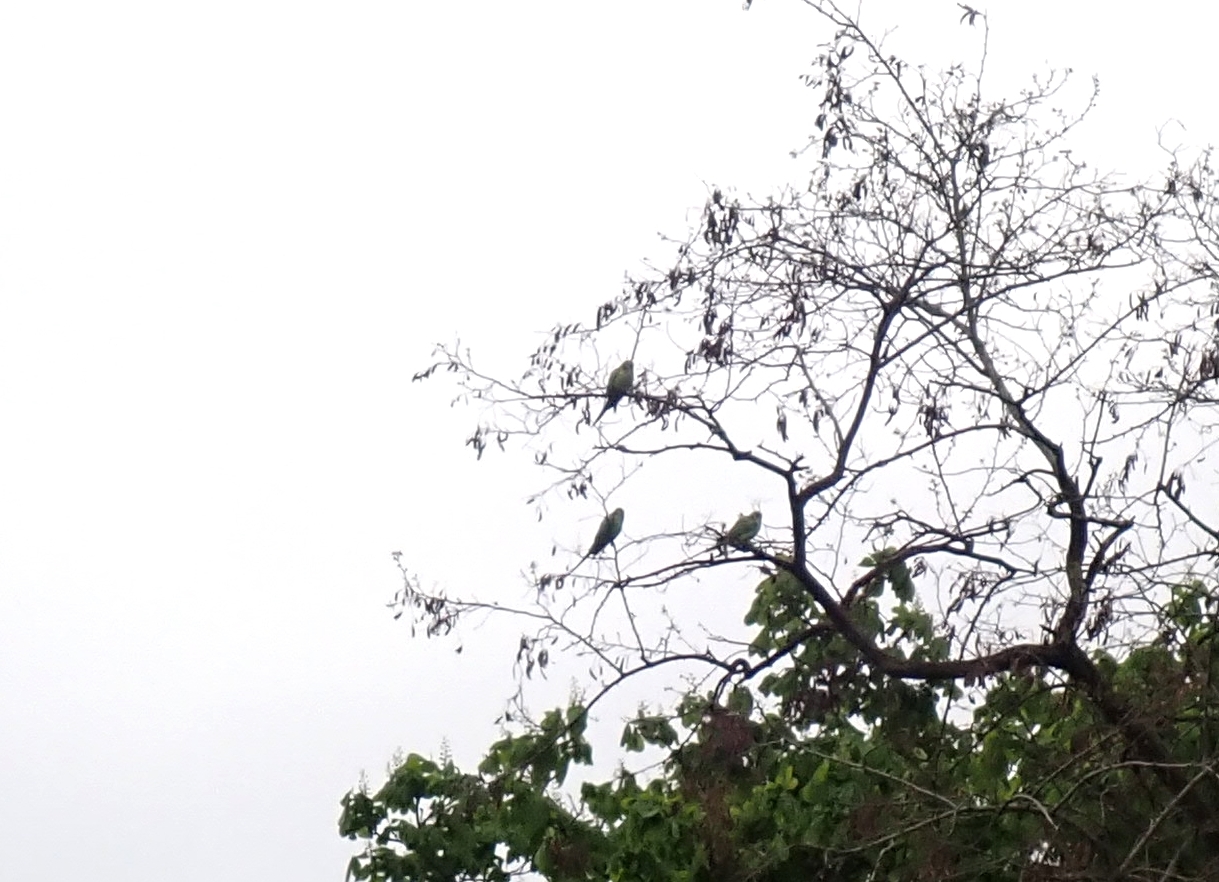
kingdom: Animalia
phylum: Chordata
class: Aves
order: Psittaciformes
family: Psittacidae
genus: Psittacula
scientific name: Psittacula krameri
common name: Rose-ringed parakeet
